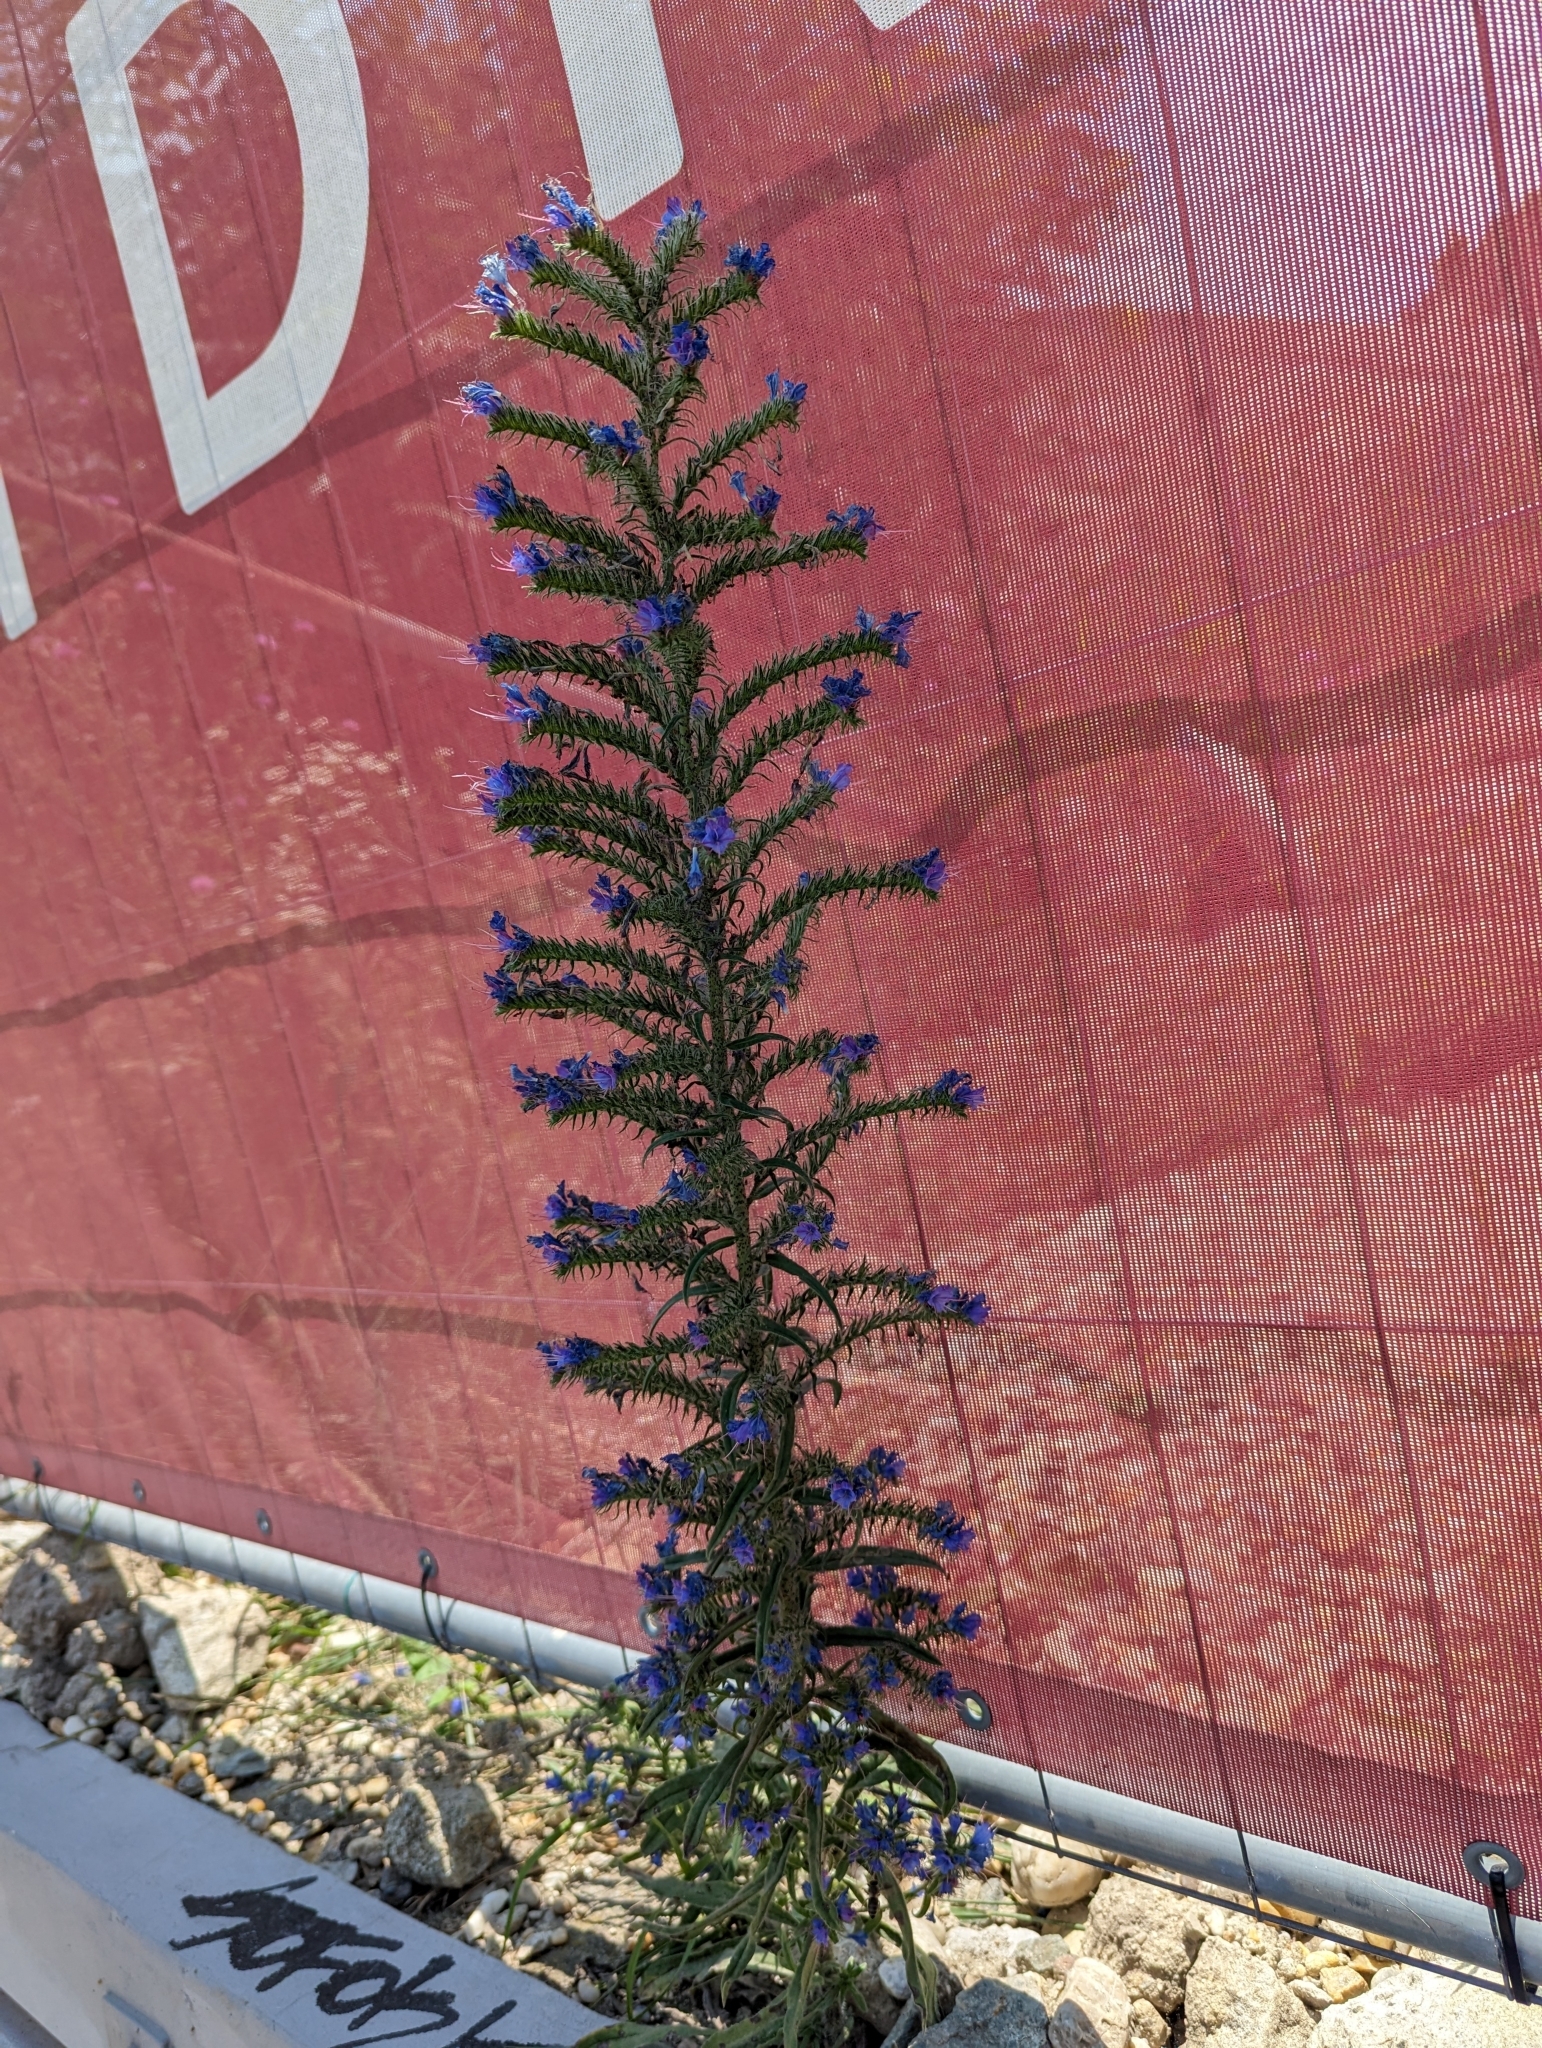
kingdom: Plantae
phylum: Tracheophyta
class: Magnoliopsida
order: Boraginales
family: Boraginaceae
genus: Echium
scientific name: Echium vulgare
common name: Common viper's bugloss
